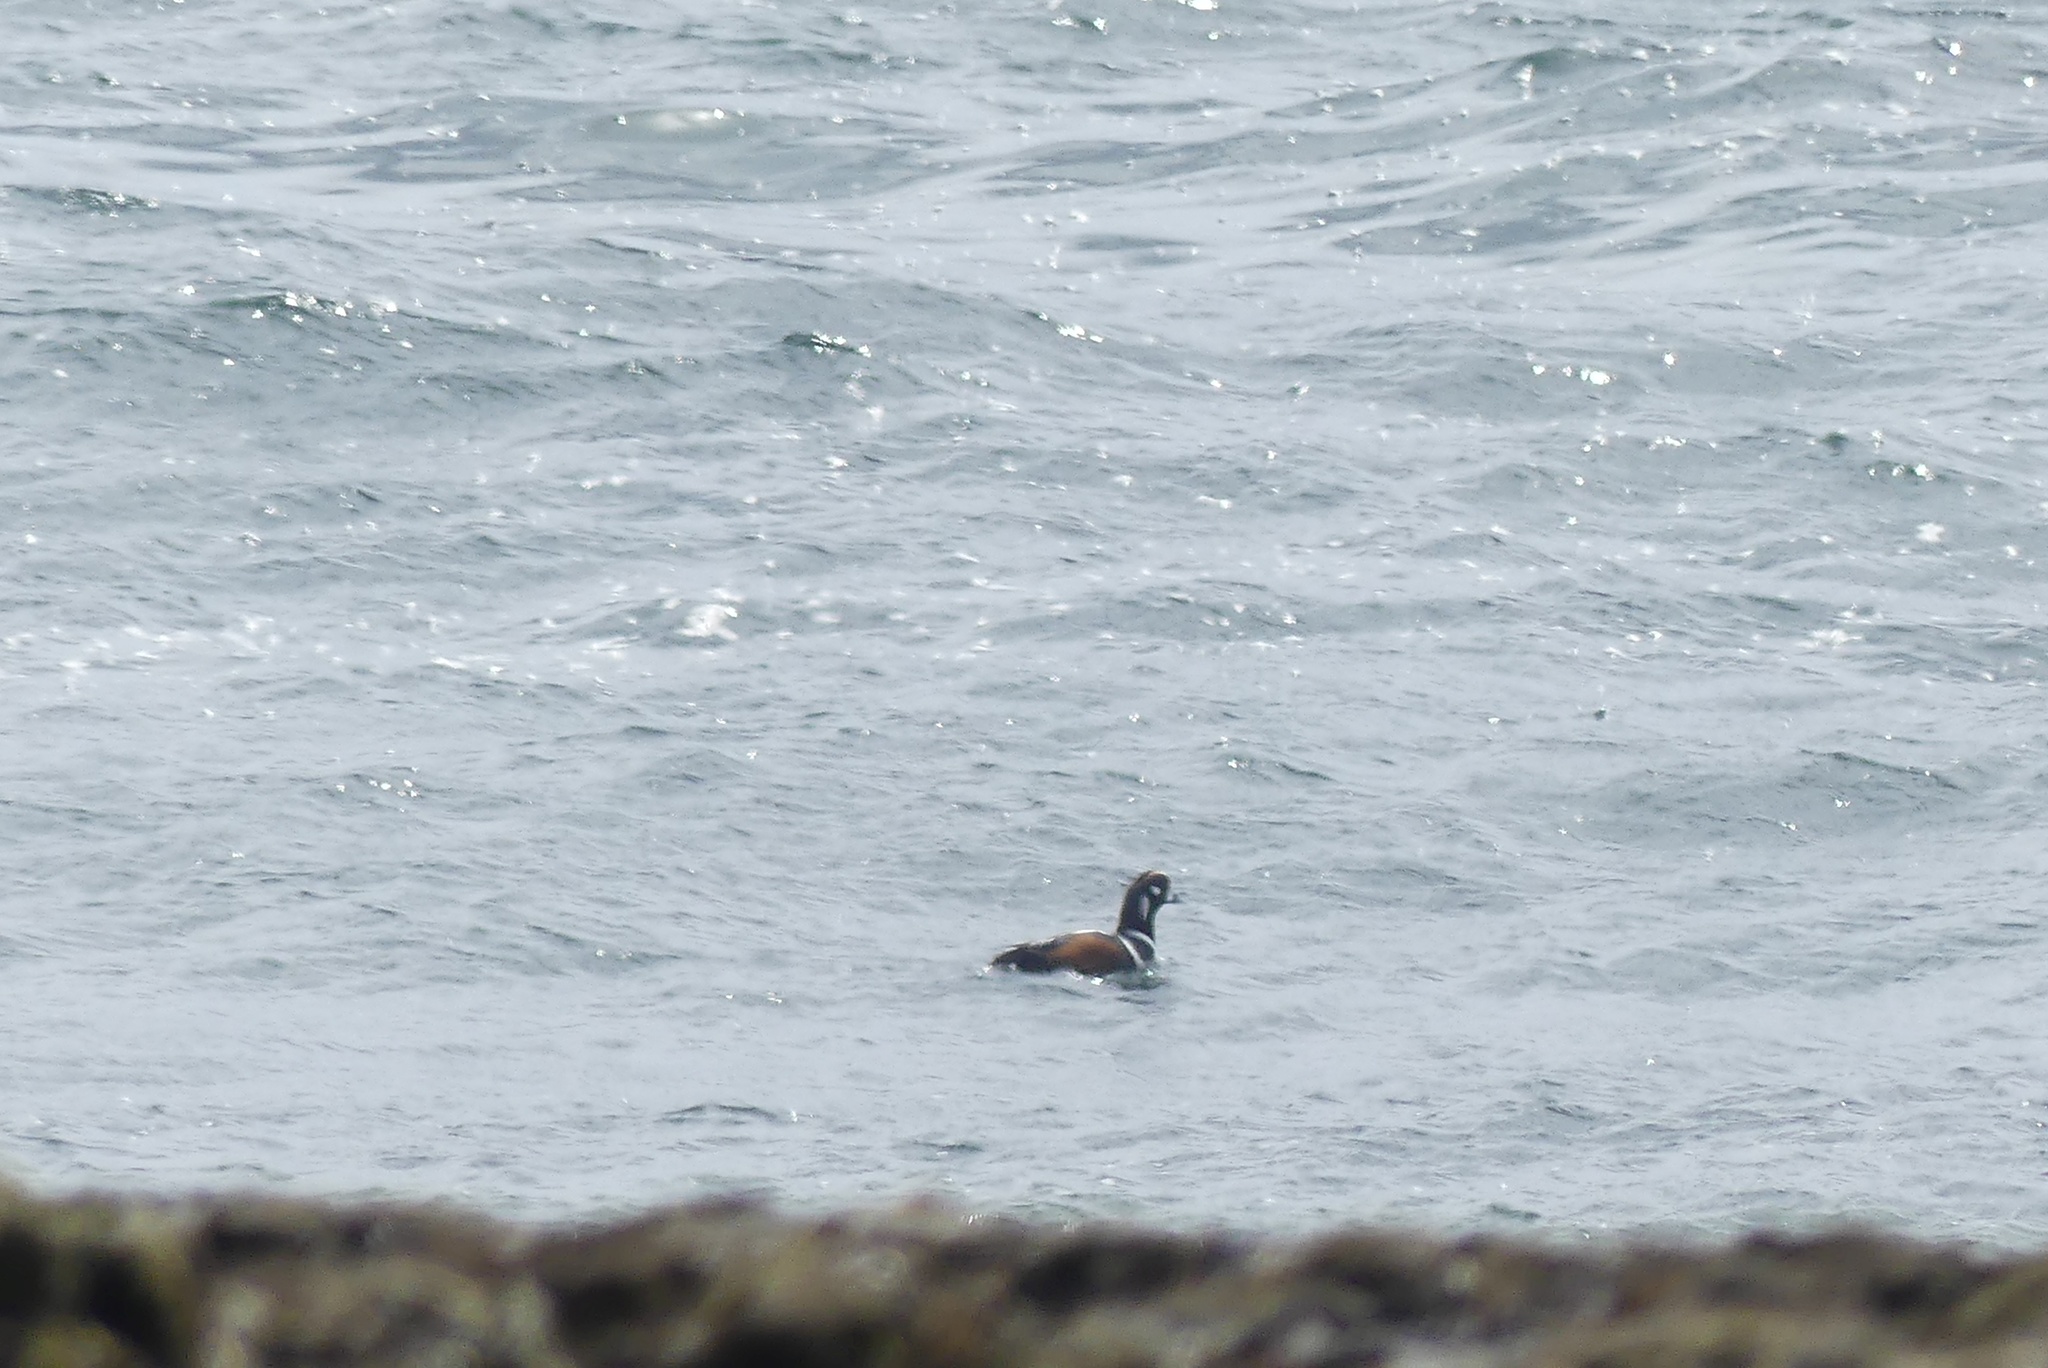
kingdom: Animalia
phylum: Chordata
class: Aves
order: Anseriformes
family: Anatidae
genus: Histrionicus
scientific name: Histrionicus histrionicus
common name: Harlequin duck
